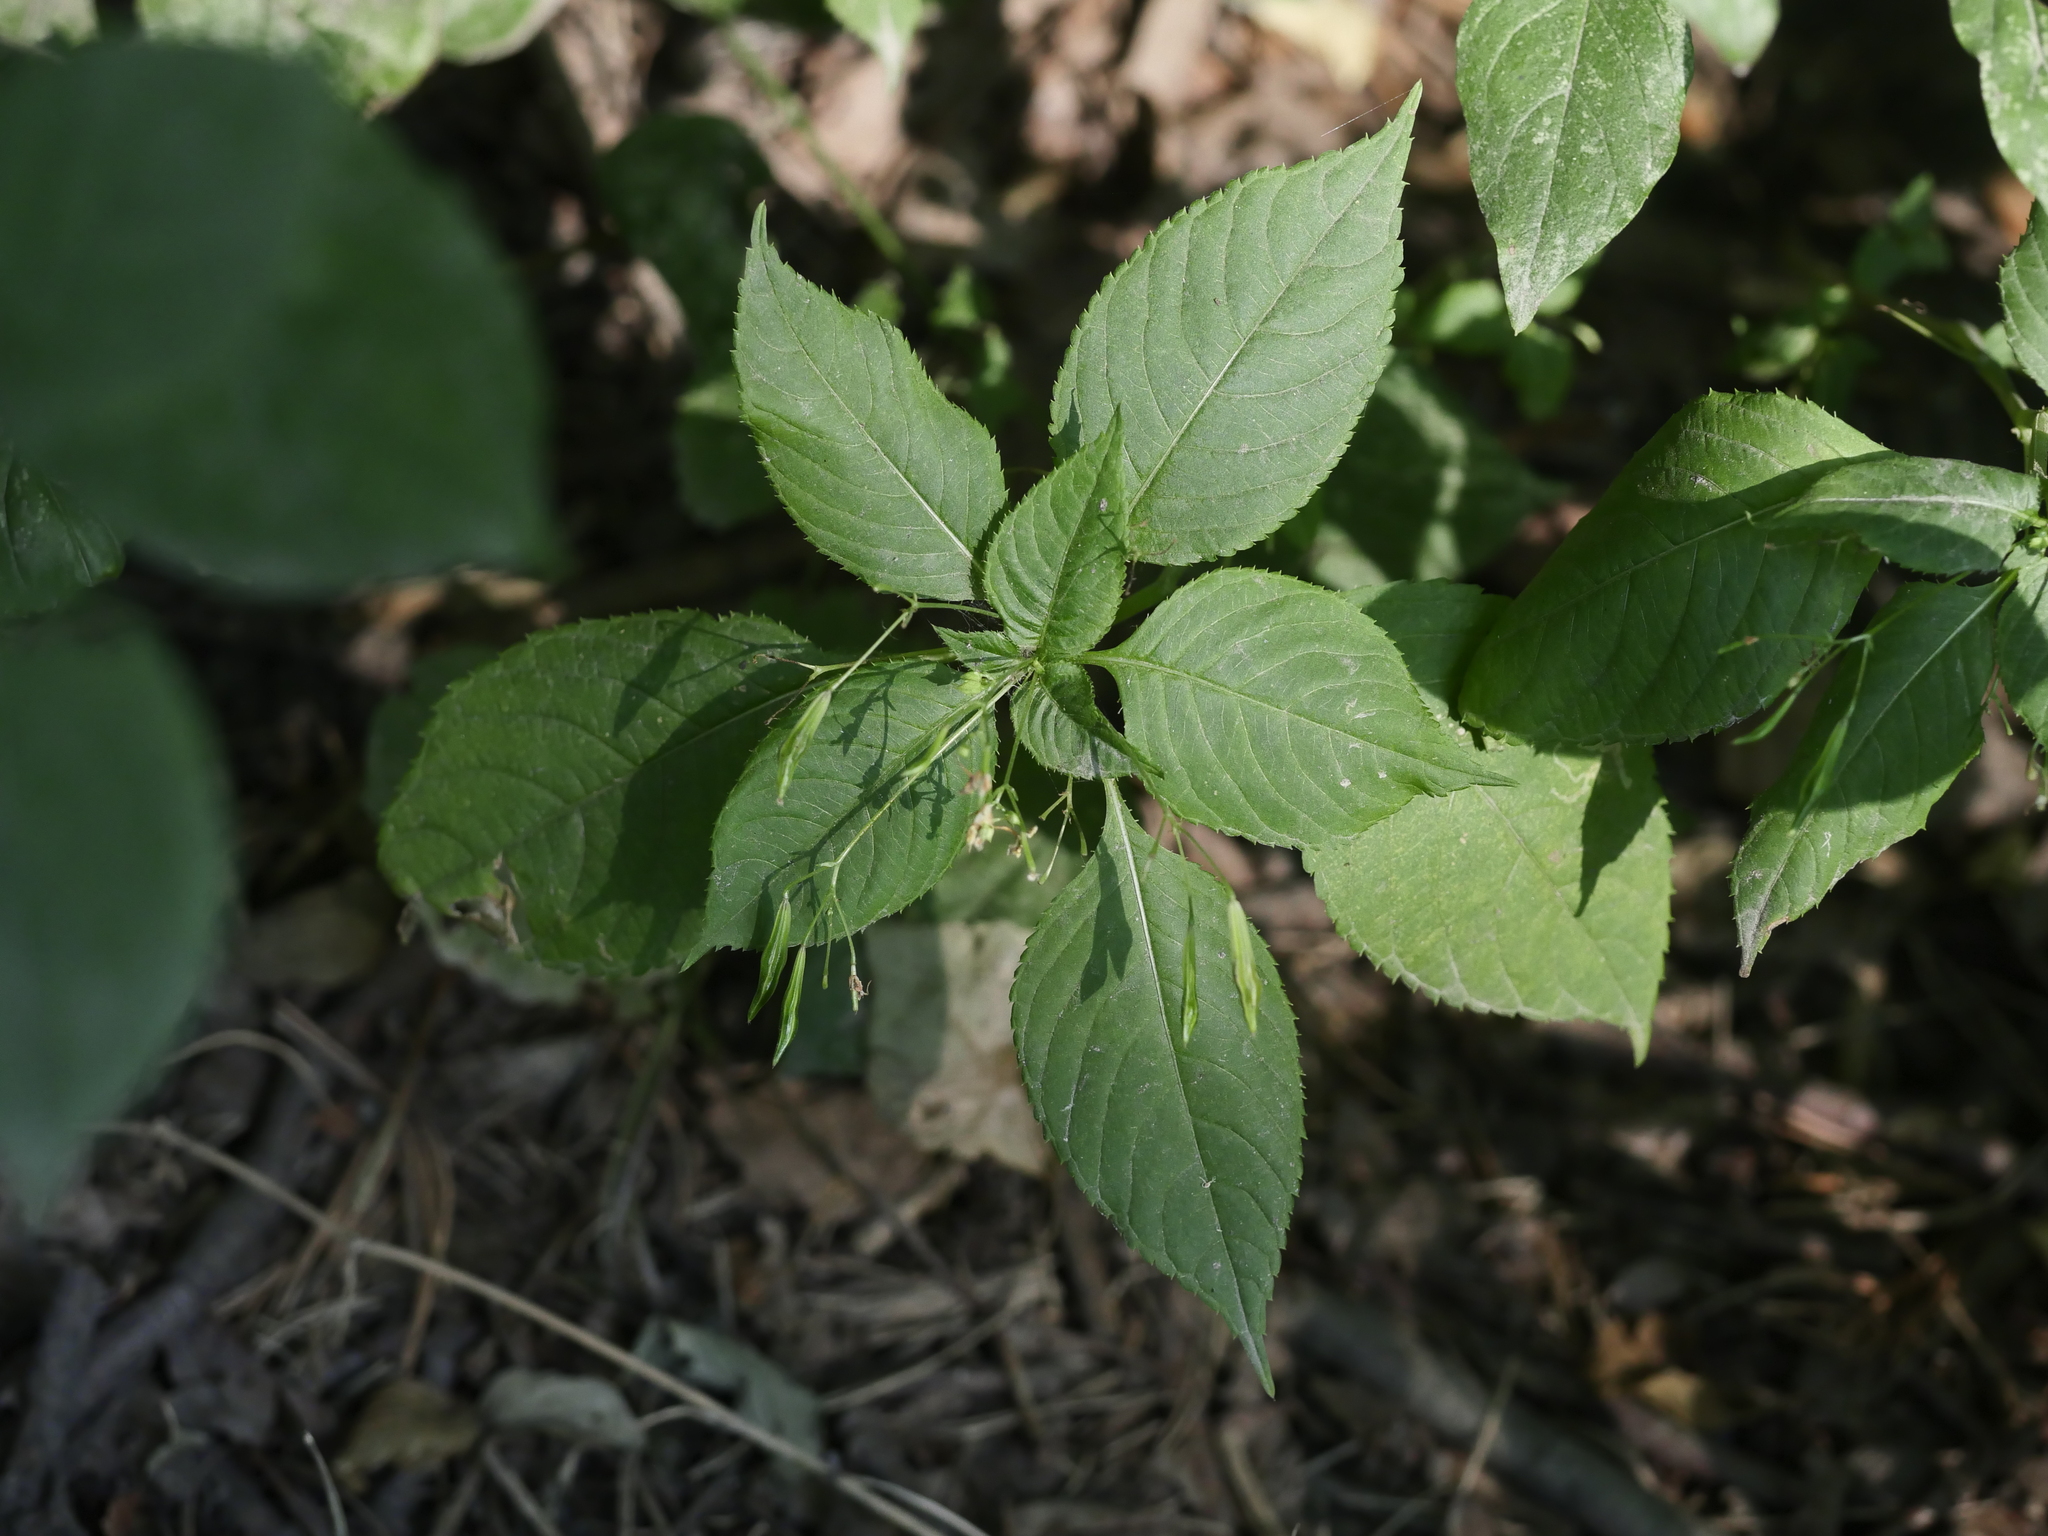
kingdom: Plantae
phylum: Tracheophyta
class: Magnoliopsida
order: Ericales
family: Balsaminaceae
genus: Impatiens
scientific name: Impatiens parviflora
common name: Small balsam
